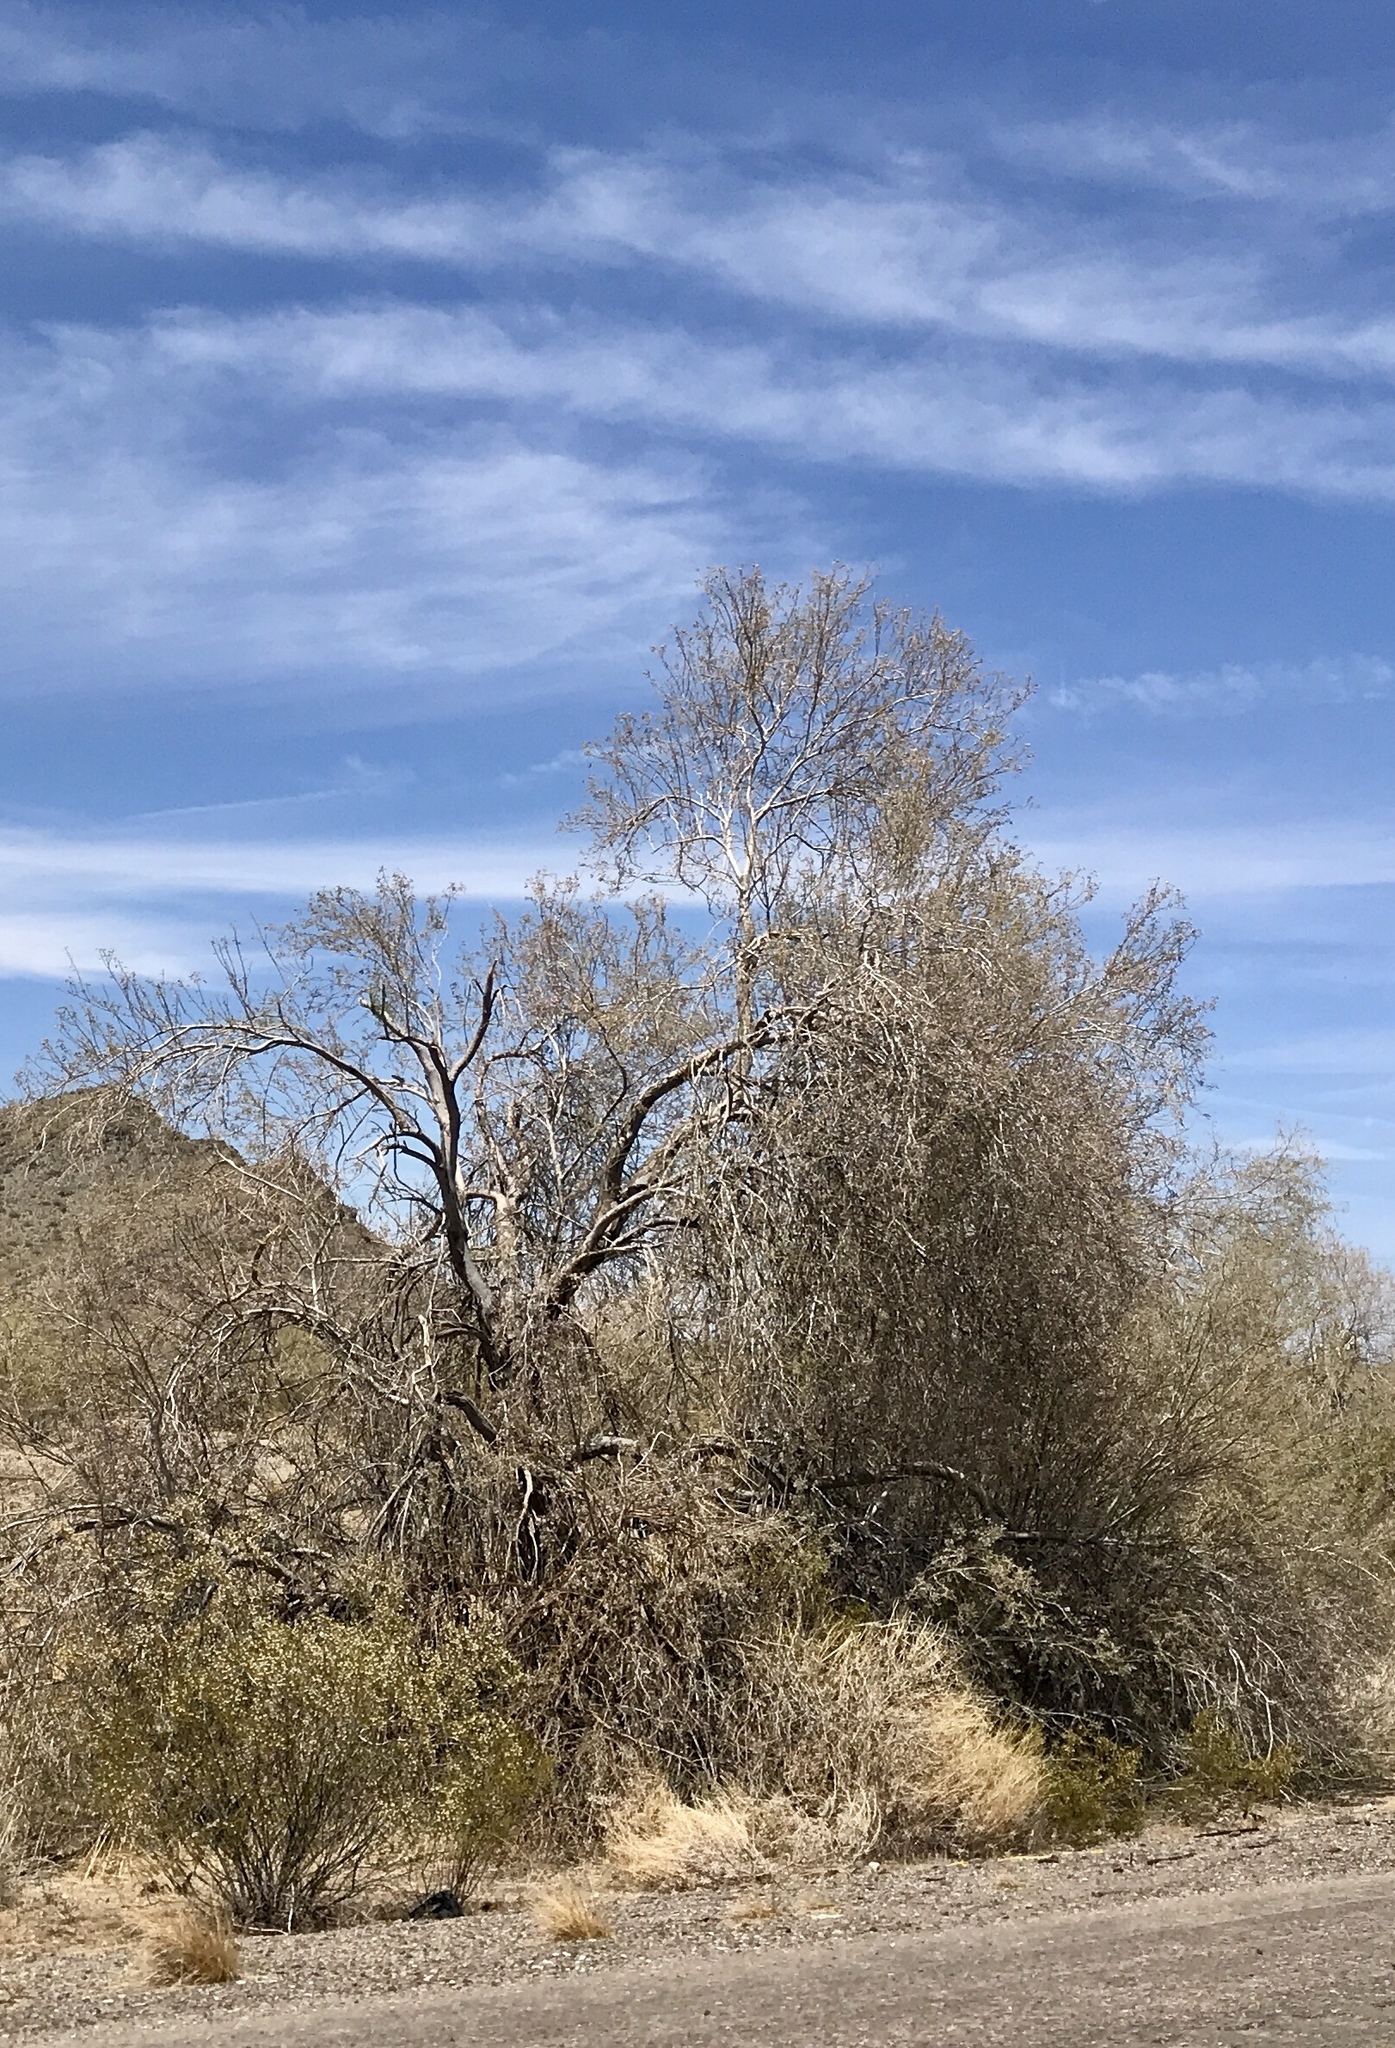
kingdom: Plantae
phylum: Tracheophyta
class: Magnoliopsida
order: Fabales
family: Fabaceae
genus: Olneya
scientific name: Olneya tesota
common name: Desert ironwood
